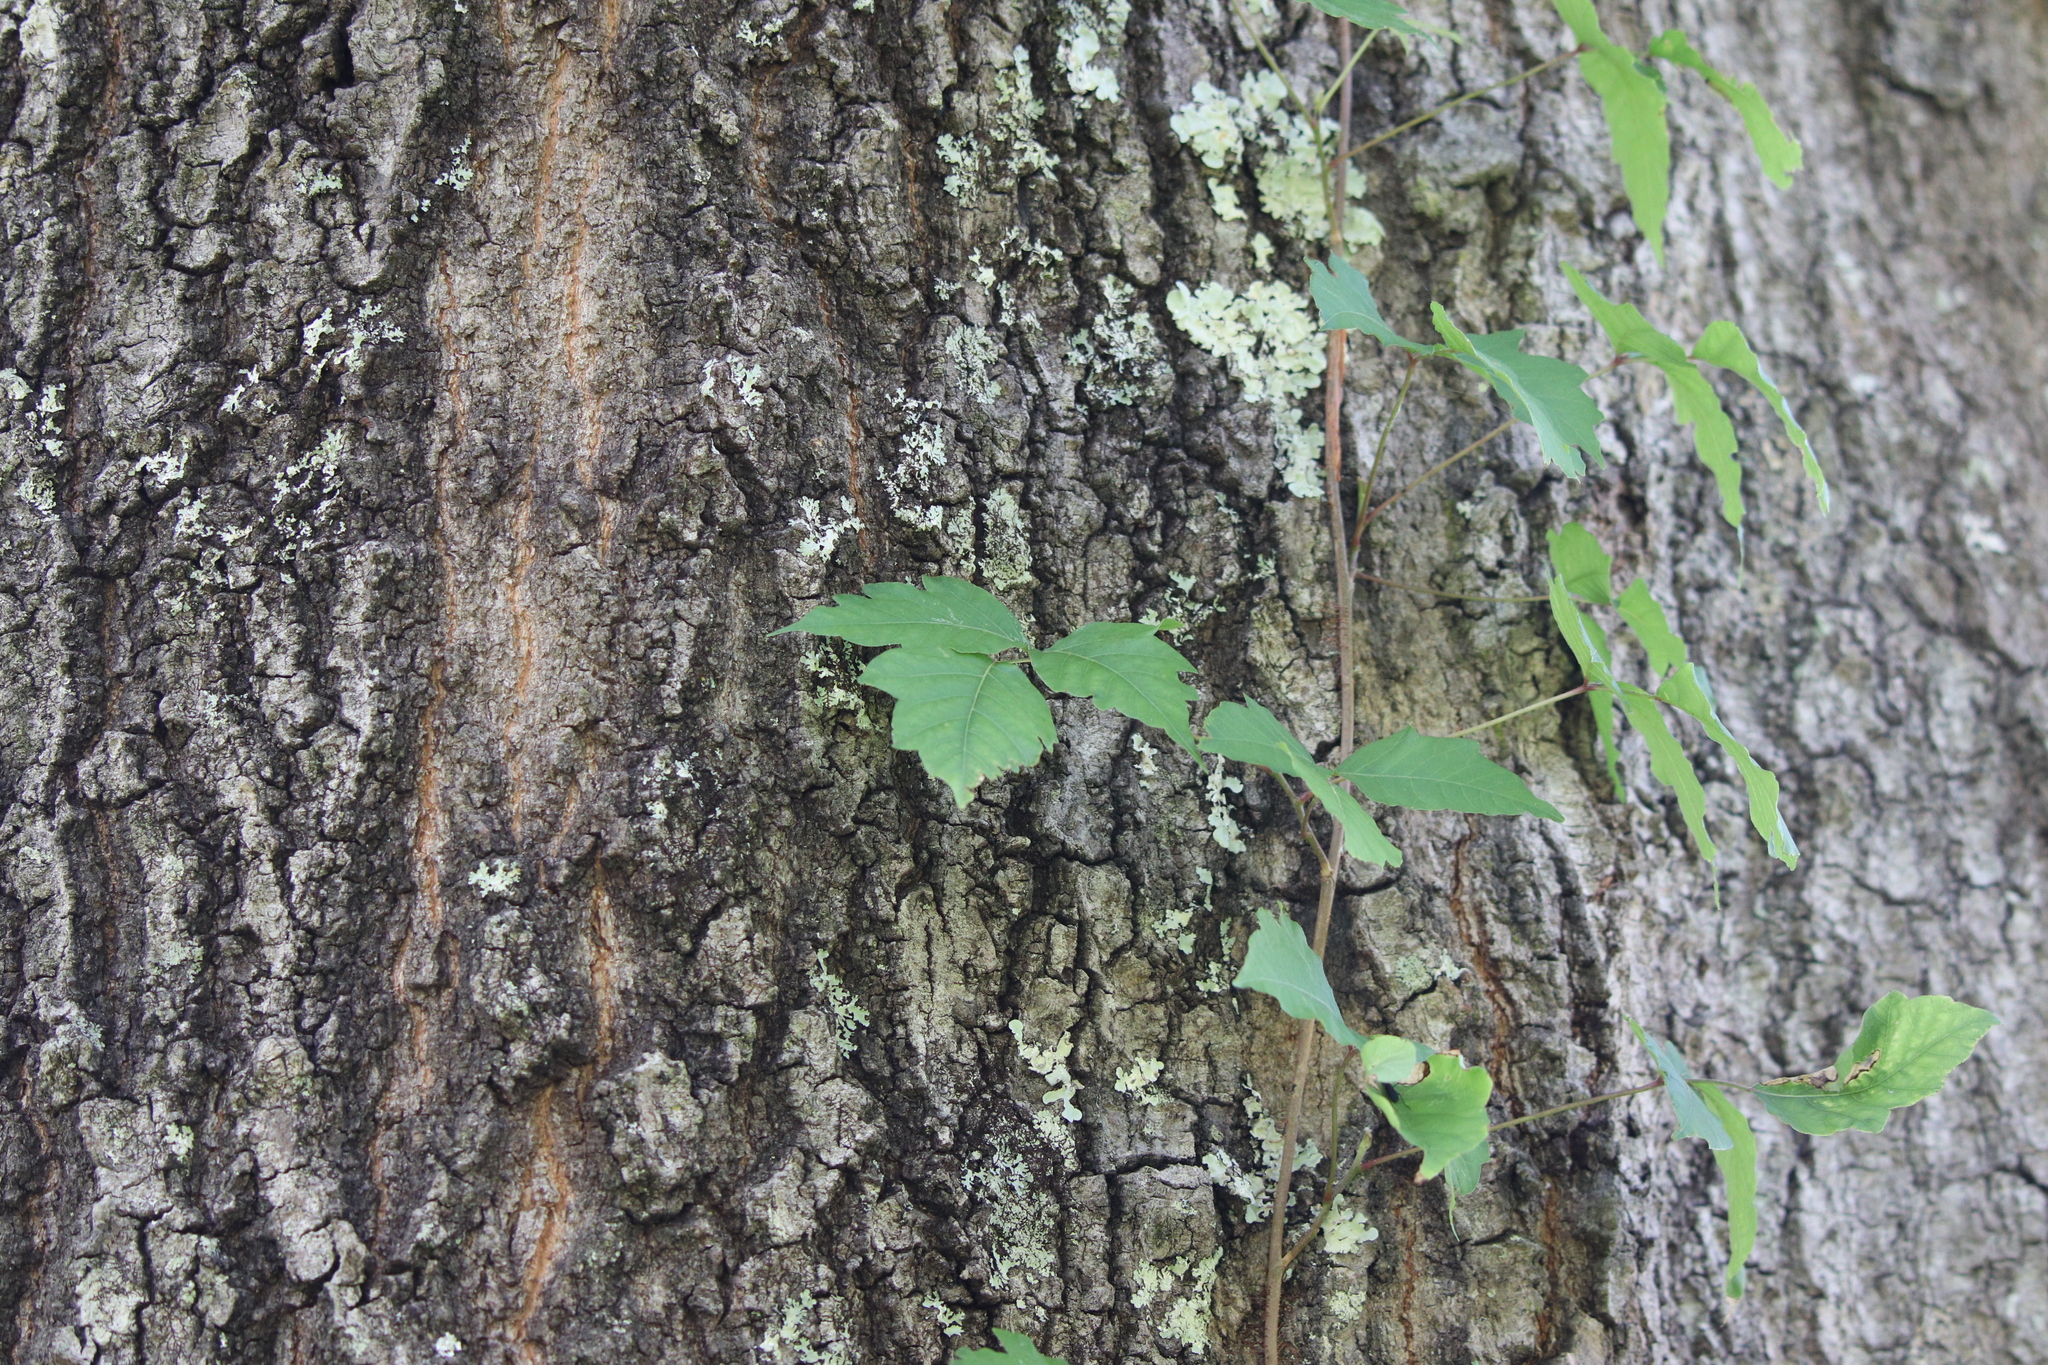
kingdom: Plantae
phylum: Tracheophyta
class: Magnoliopsida
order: Sapindales
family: Anacardiaceae
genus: Toxicodendron
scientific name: Toxicodendron radicans
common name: Poison ivy
